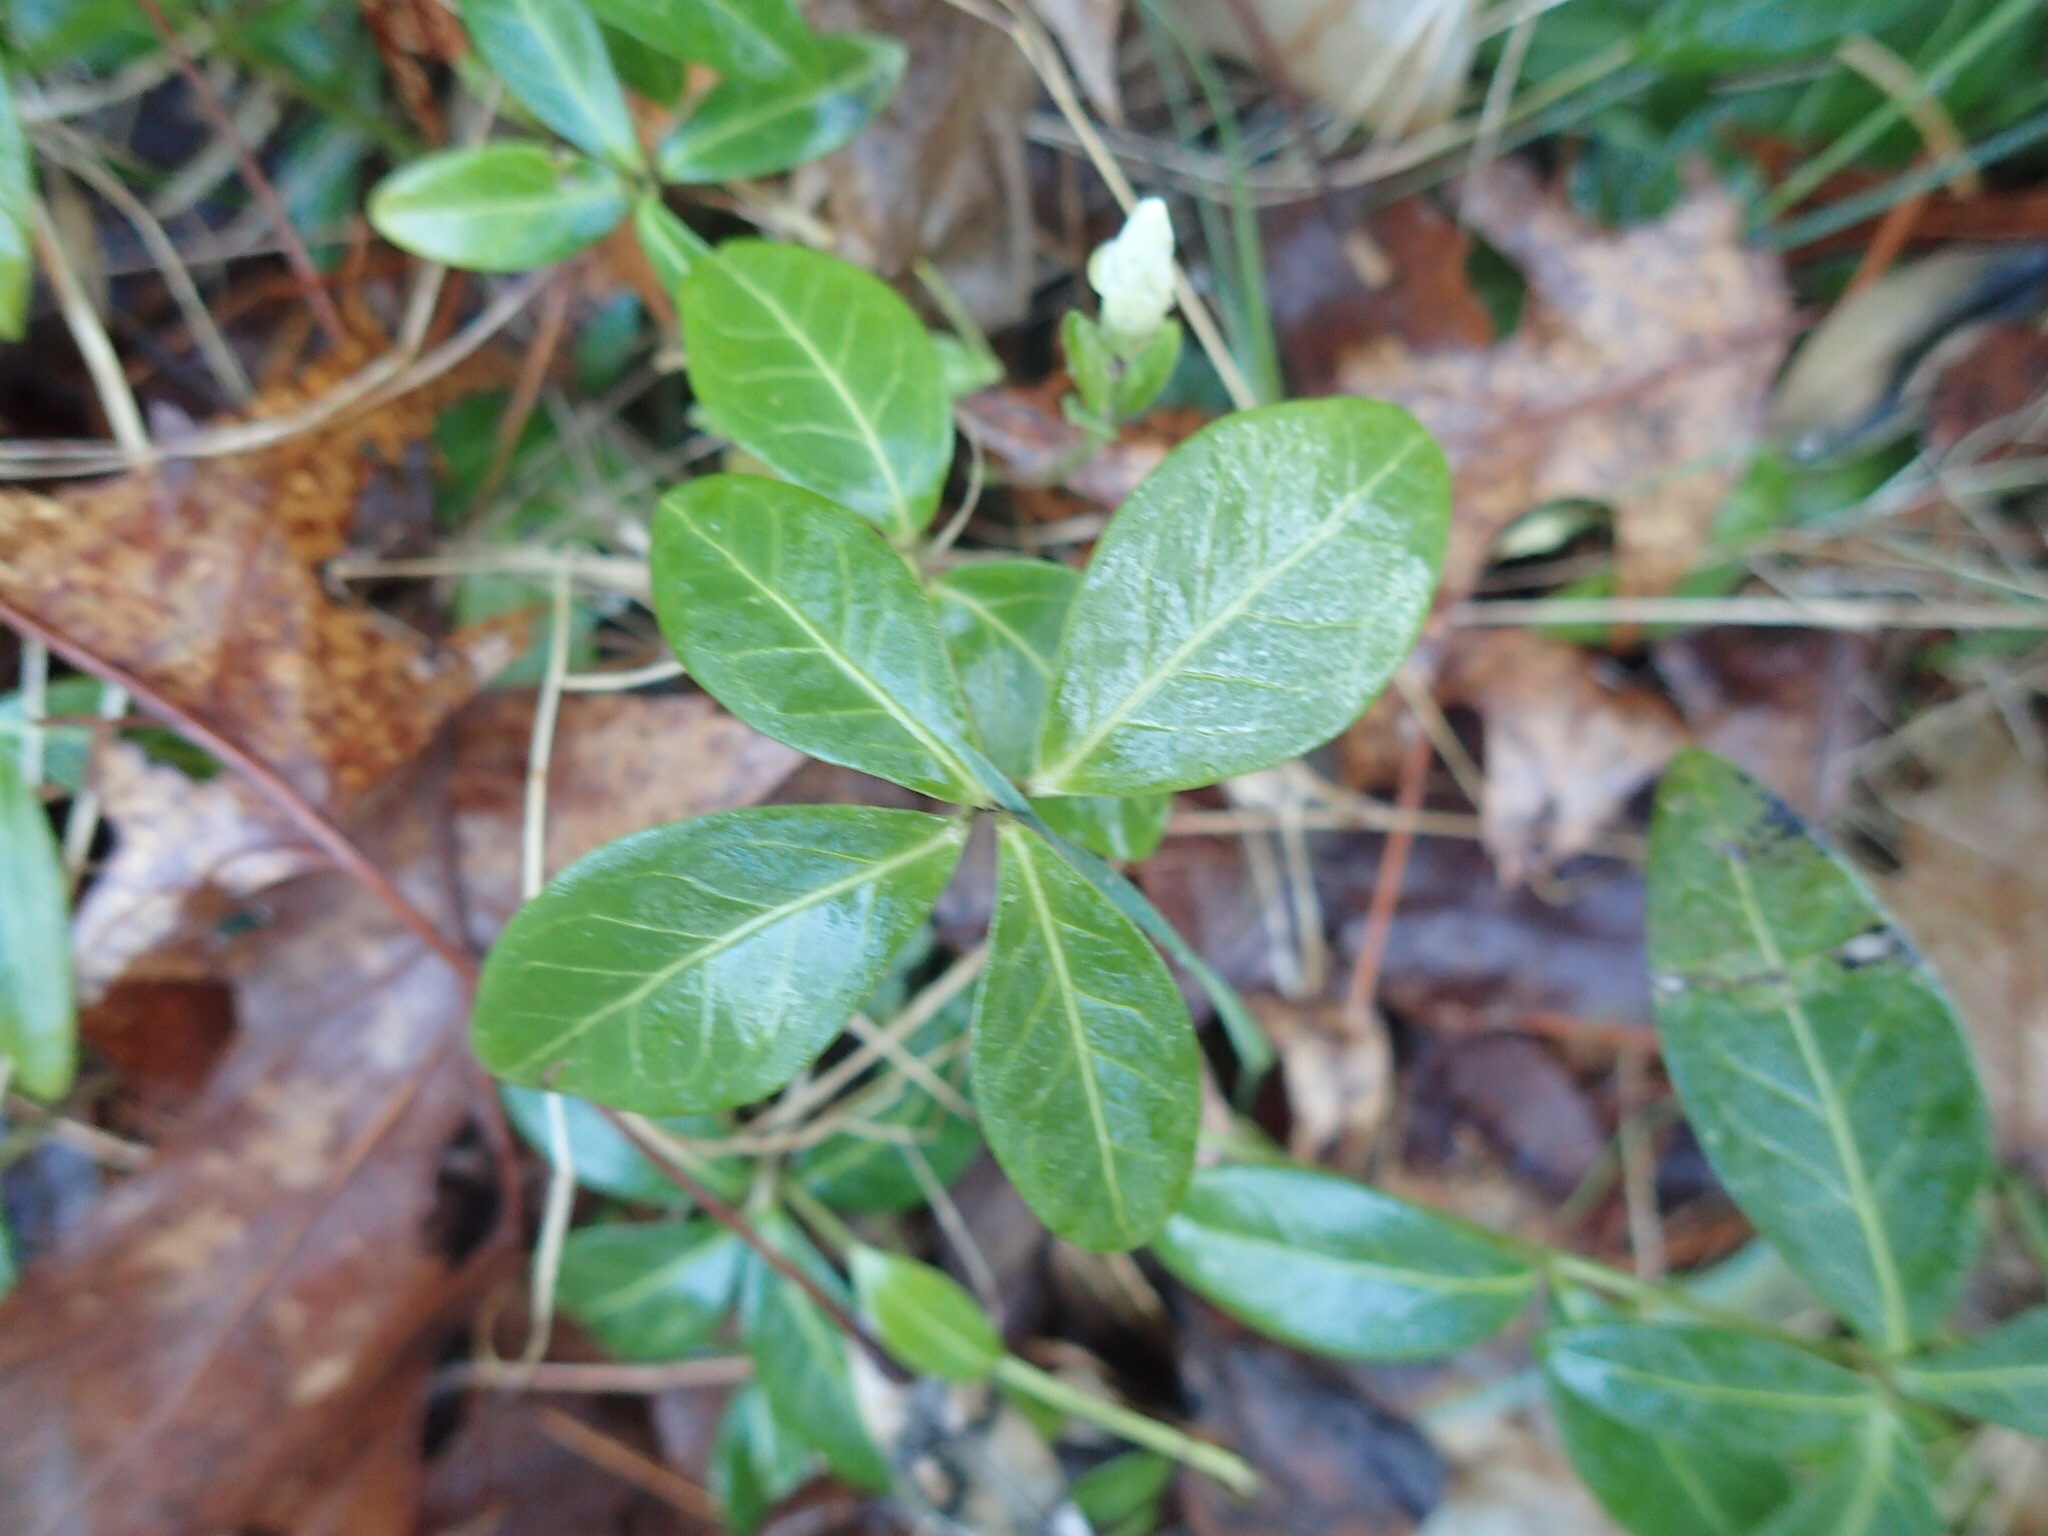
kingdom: Plantae
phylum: Tracheophyta
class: Magnoliopsida
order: Gentianales
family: Apocynaceae
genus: Vinca
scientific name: Vinca minor
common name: Lesser periwinkle
